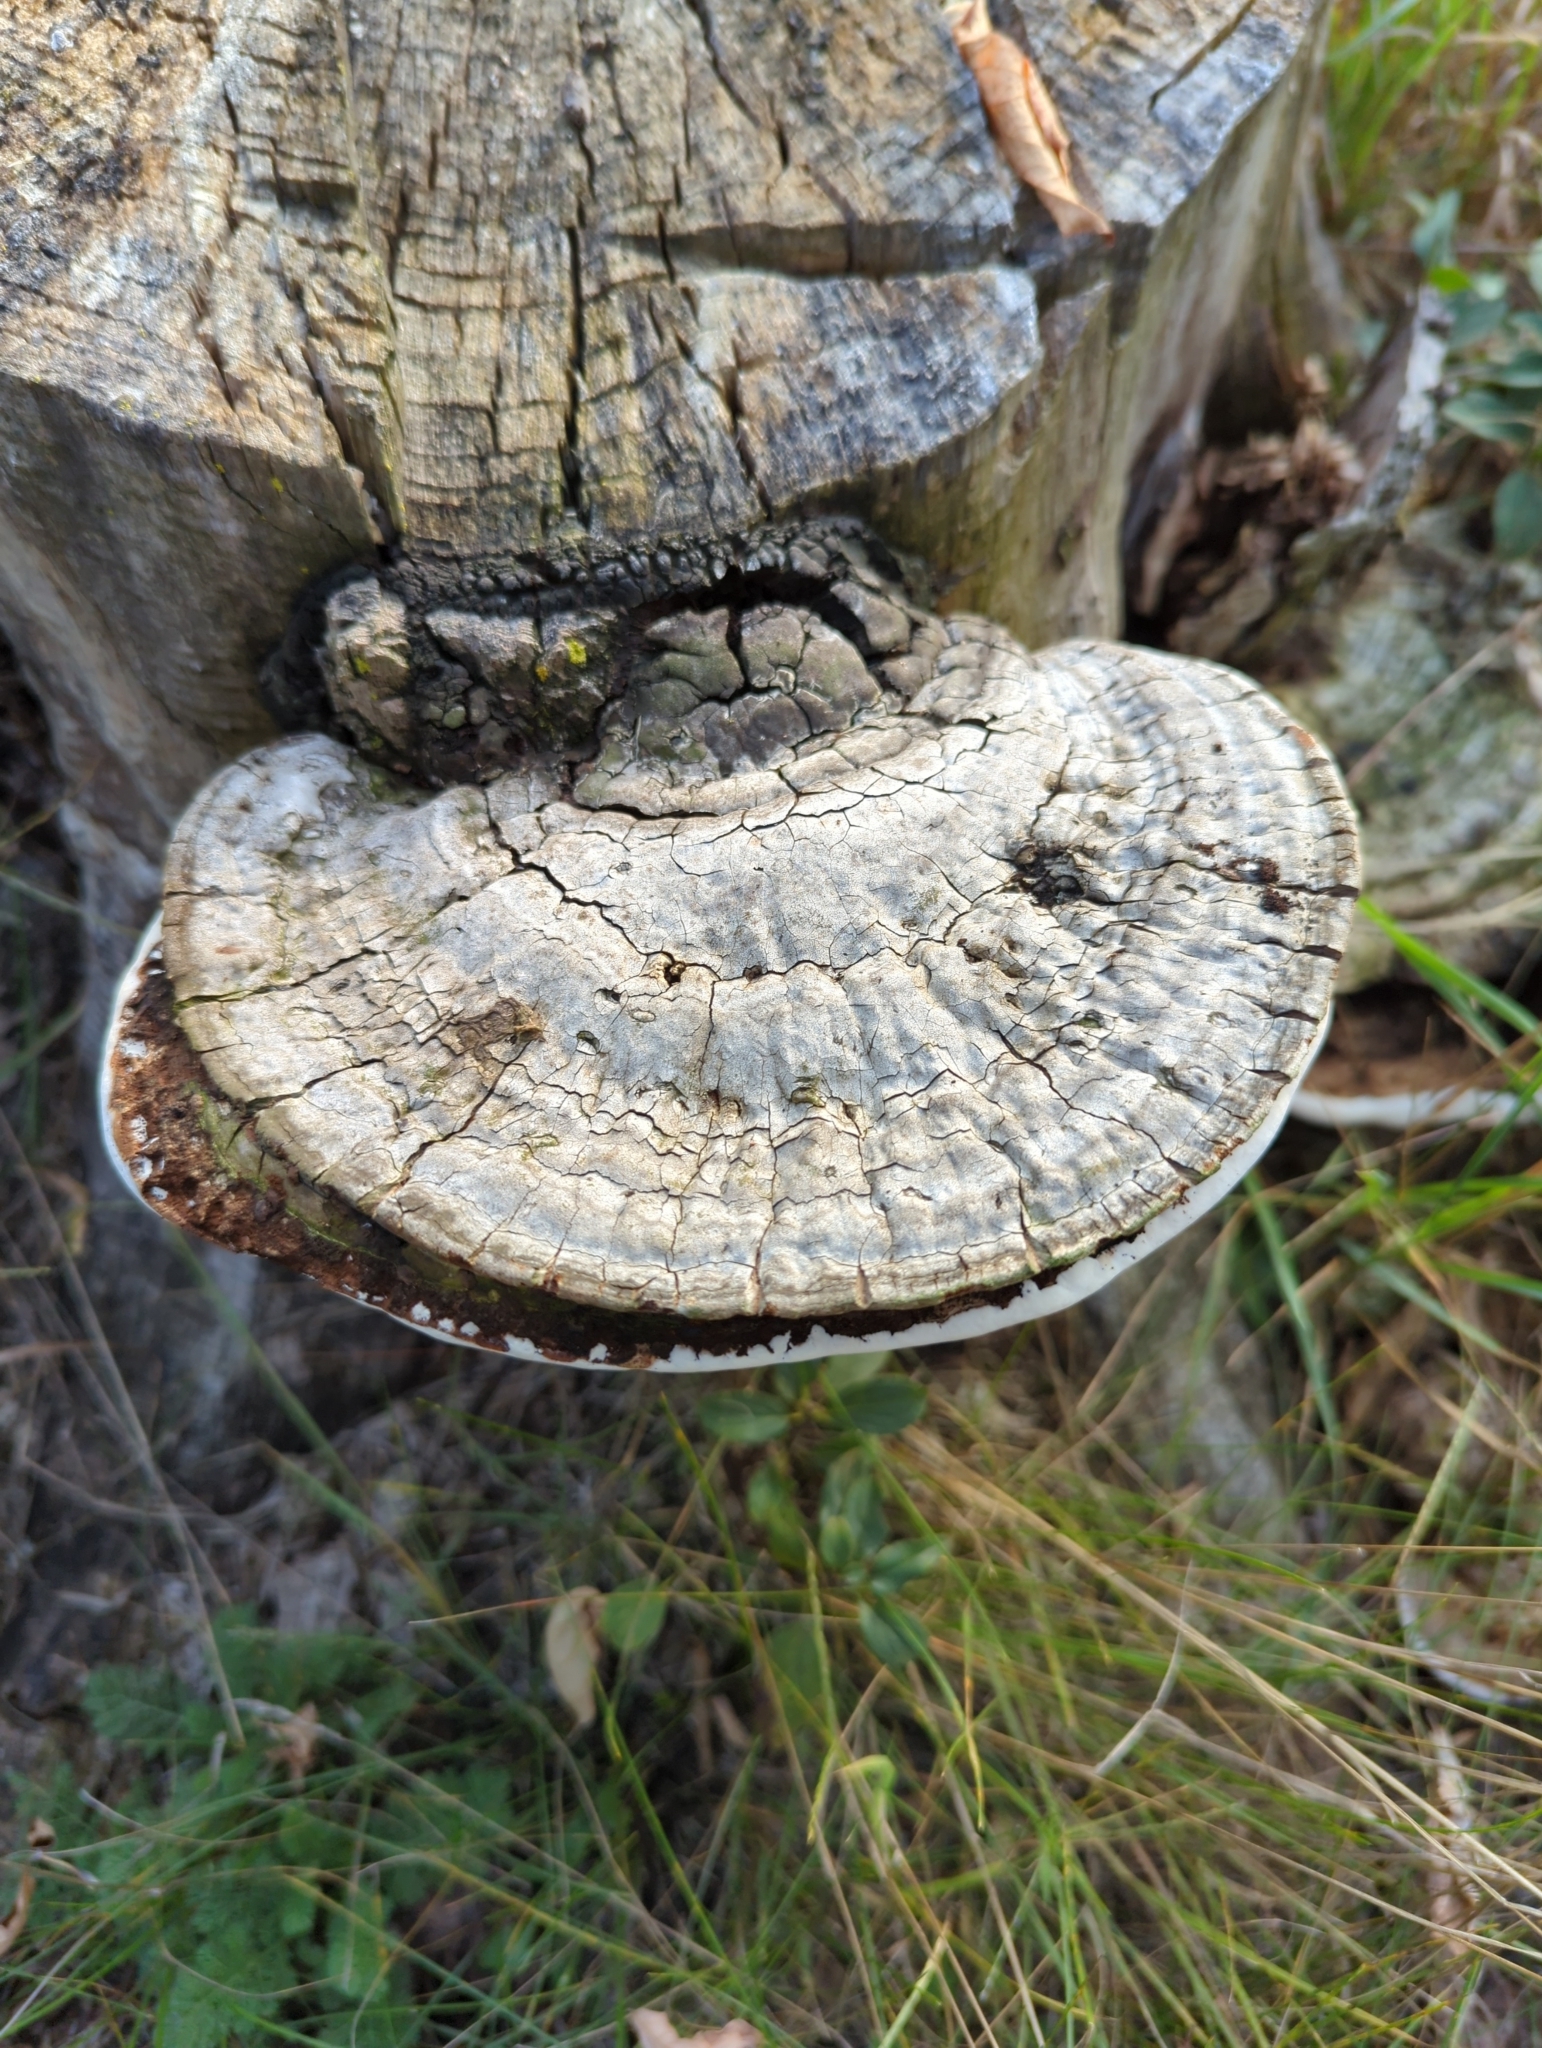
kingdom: Fungi
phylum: Basidiomycota
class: Agaricomycetes
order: Polyporales
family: Polyporaceae
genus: Ganoderma
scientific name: Ganoderma applanatum
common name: Artist's bracket
